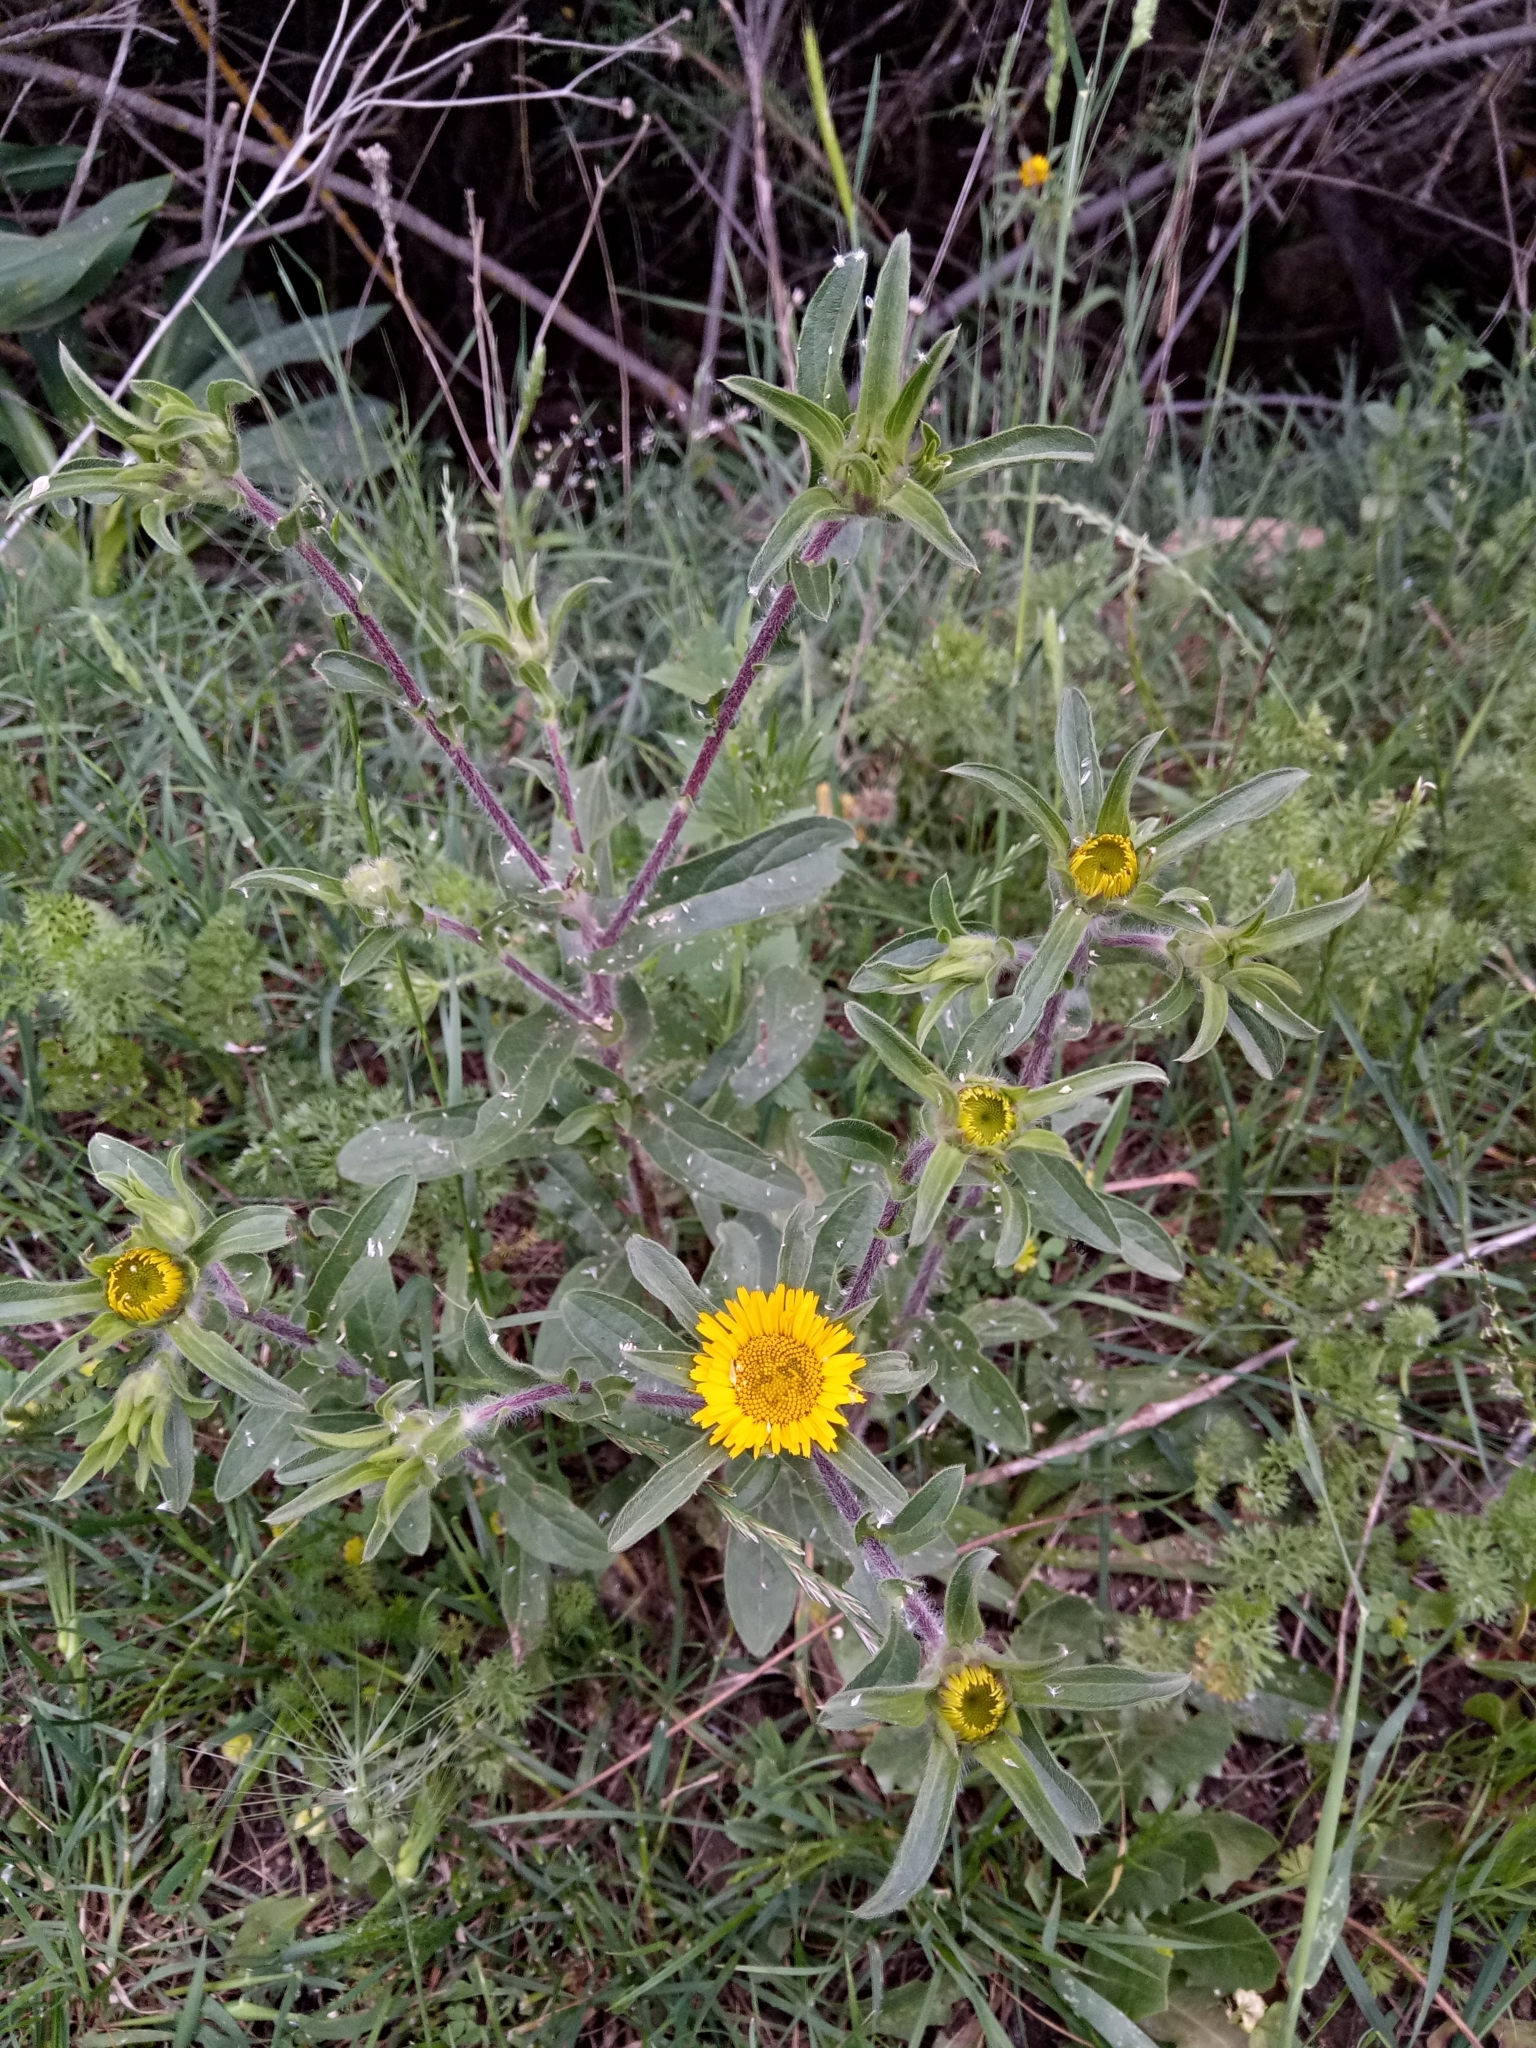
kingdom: Plantae
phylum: Tracheophyta
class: Magnoliopsida
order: Asterales
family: Asteraceae
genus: Pallenis
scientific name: Pallenis spinosa
